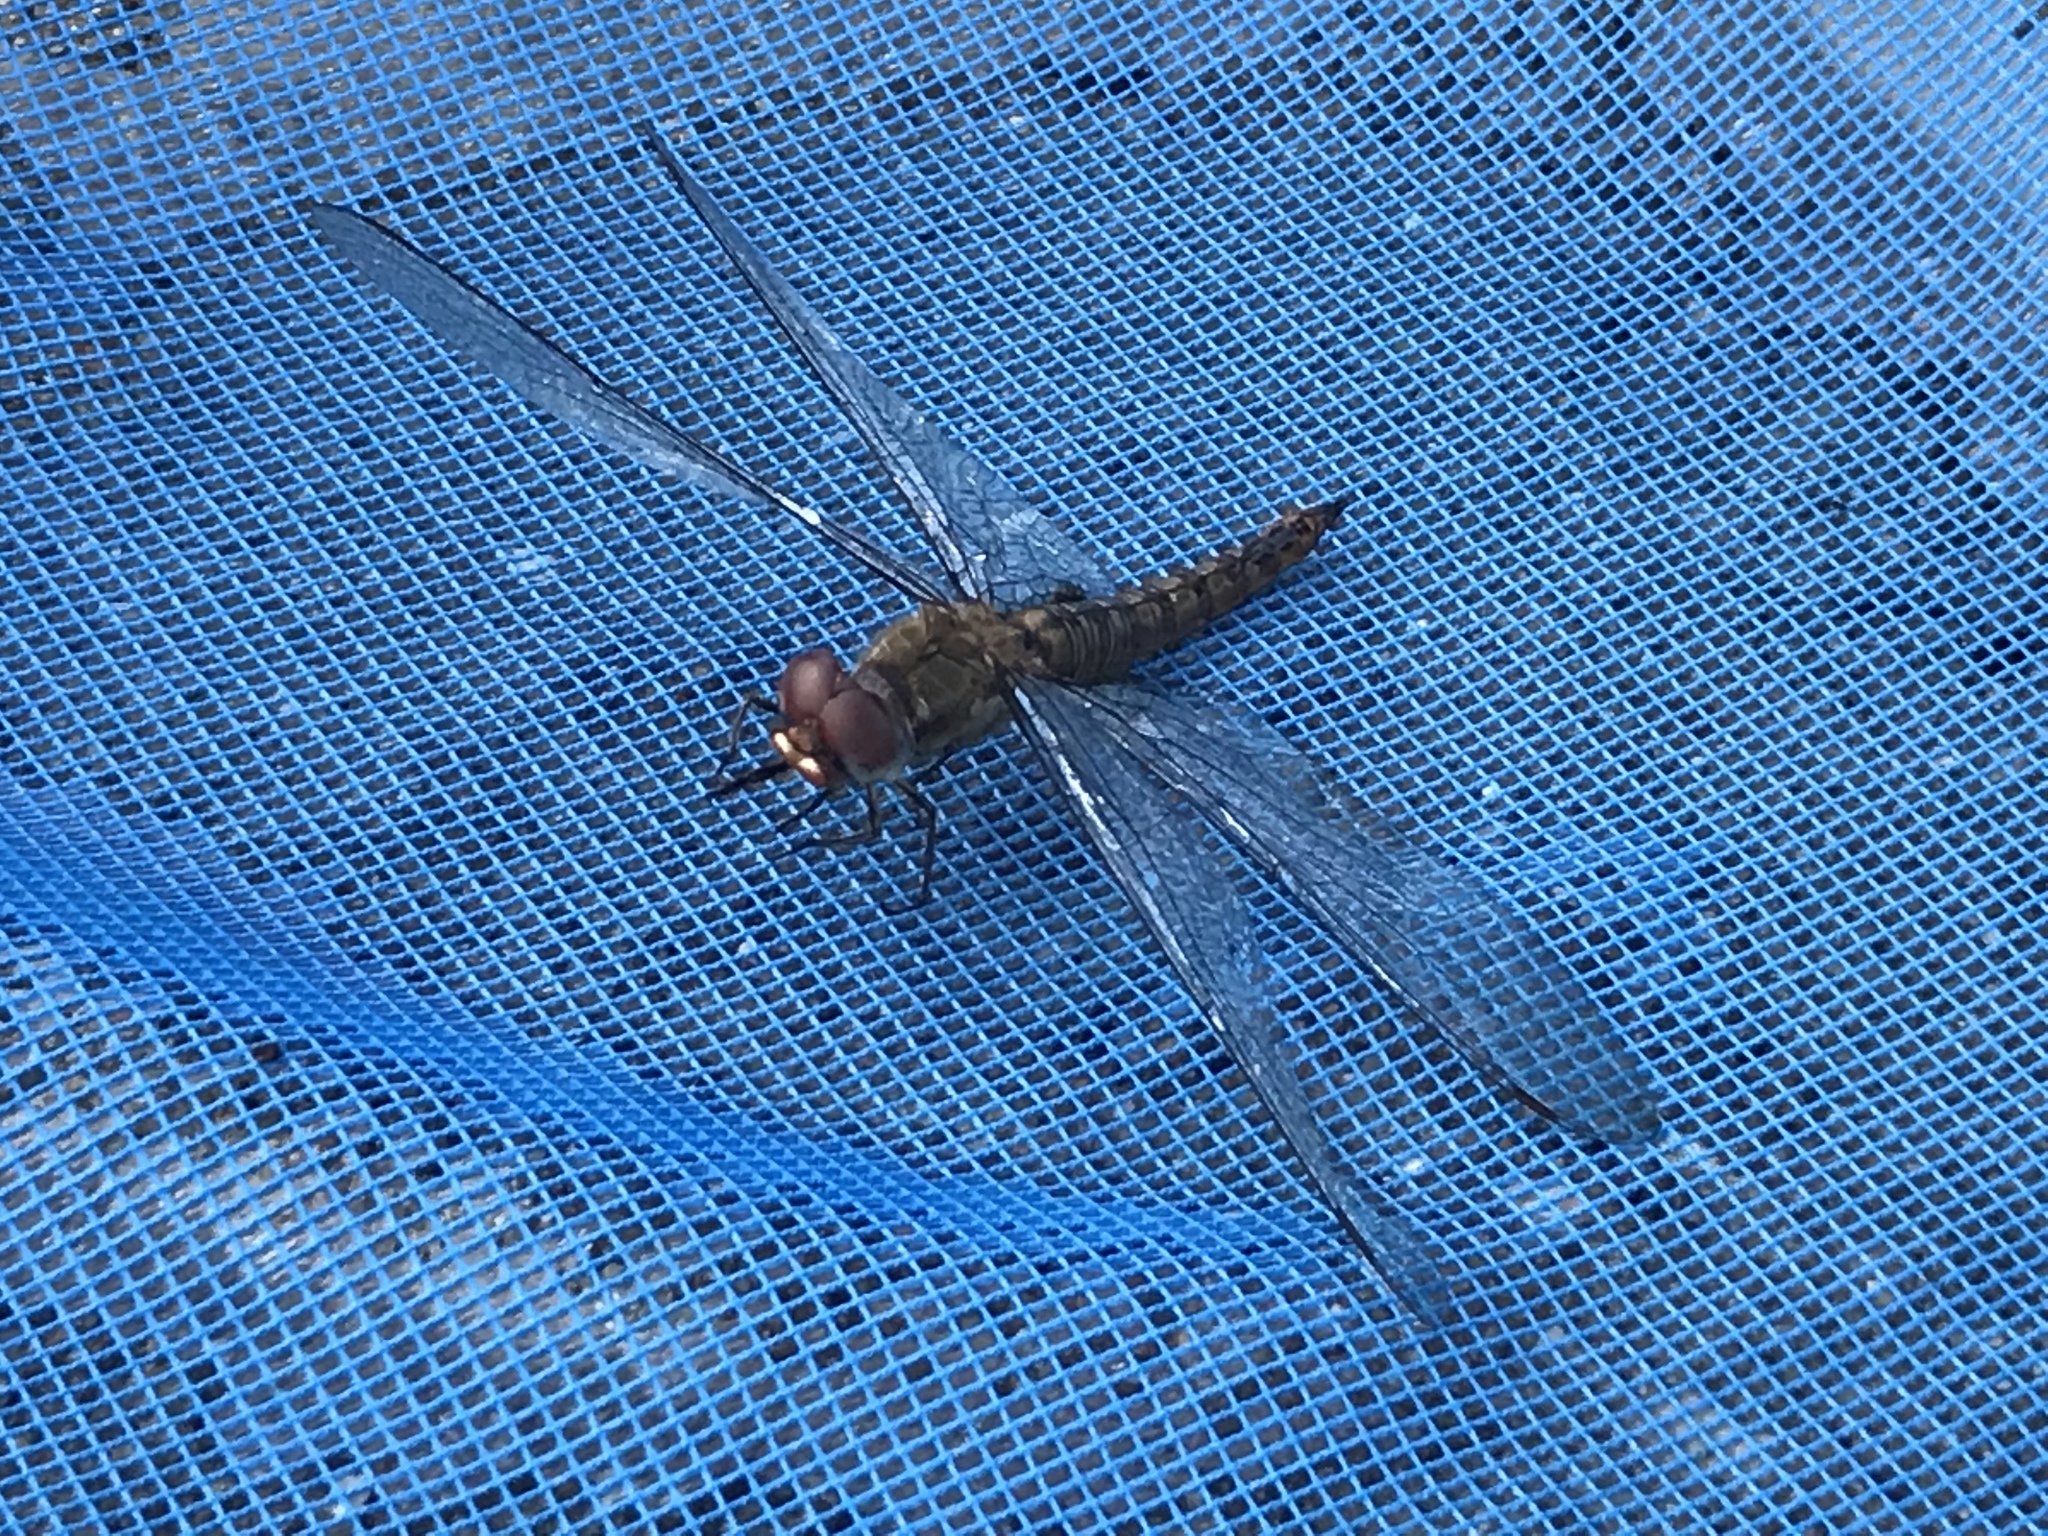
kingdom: Animalia
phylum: Arthropoda
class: Insecta
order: Odonata
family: Libellulidae
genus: Pantala
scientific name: Pantala hymenaea
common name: Spot-winged glider
